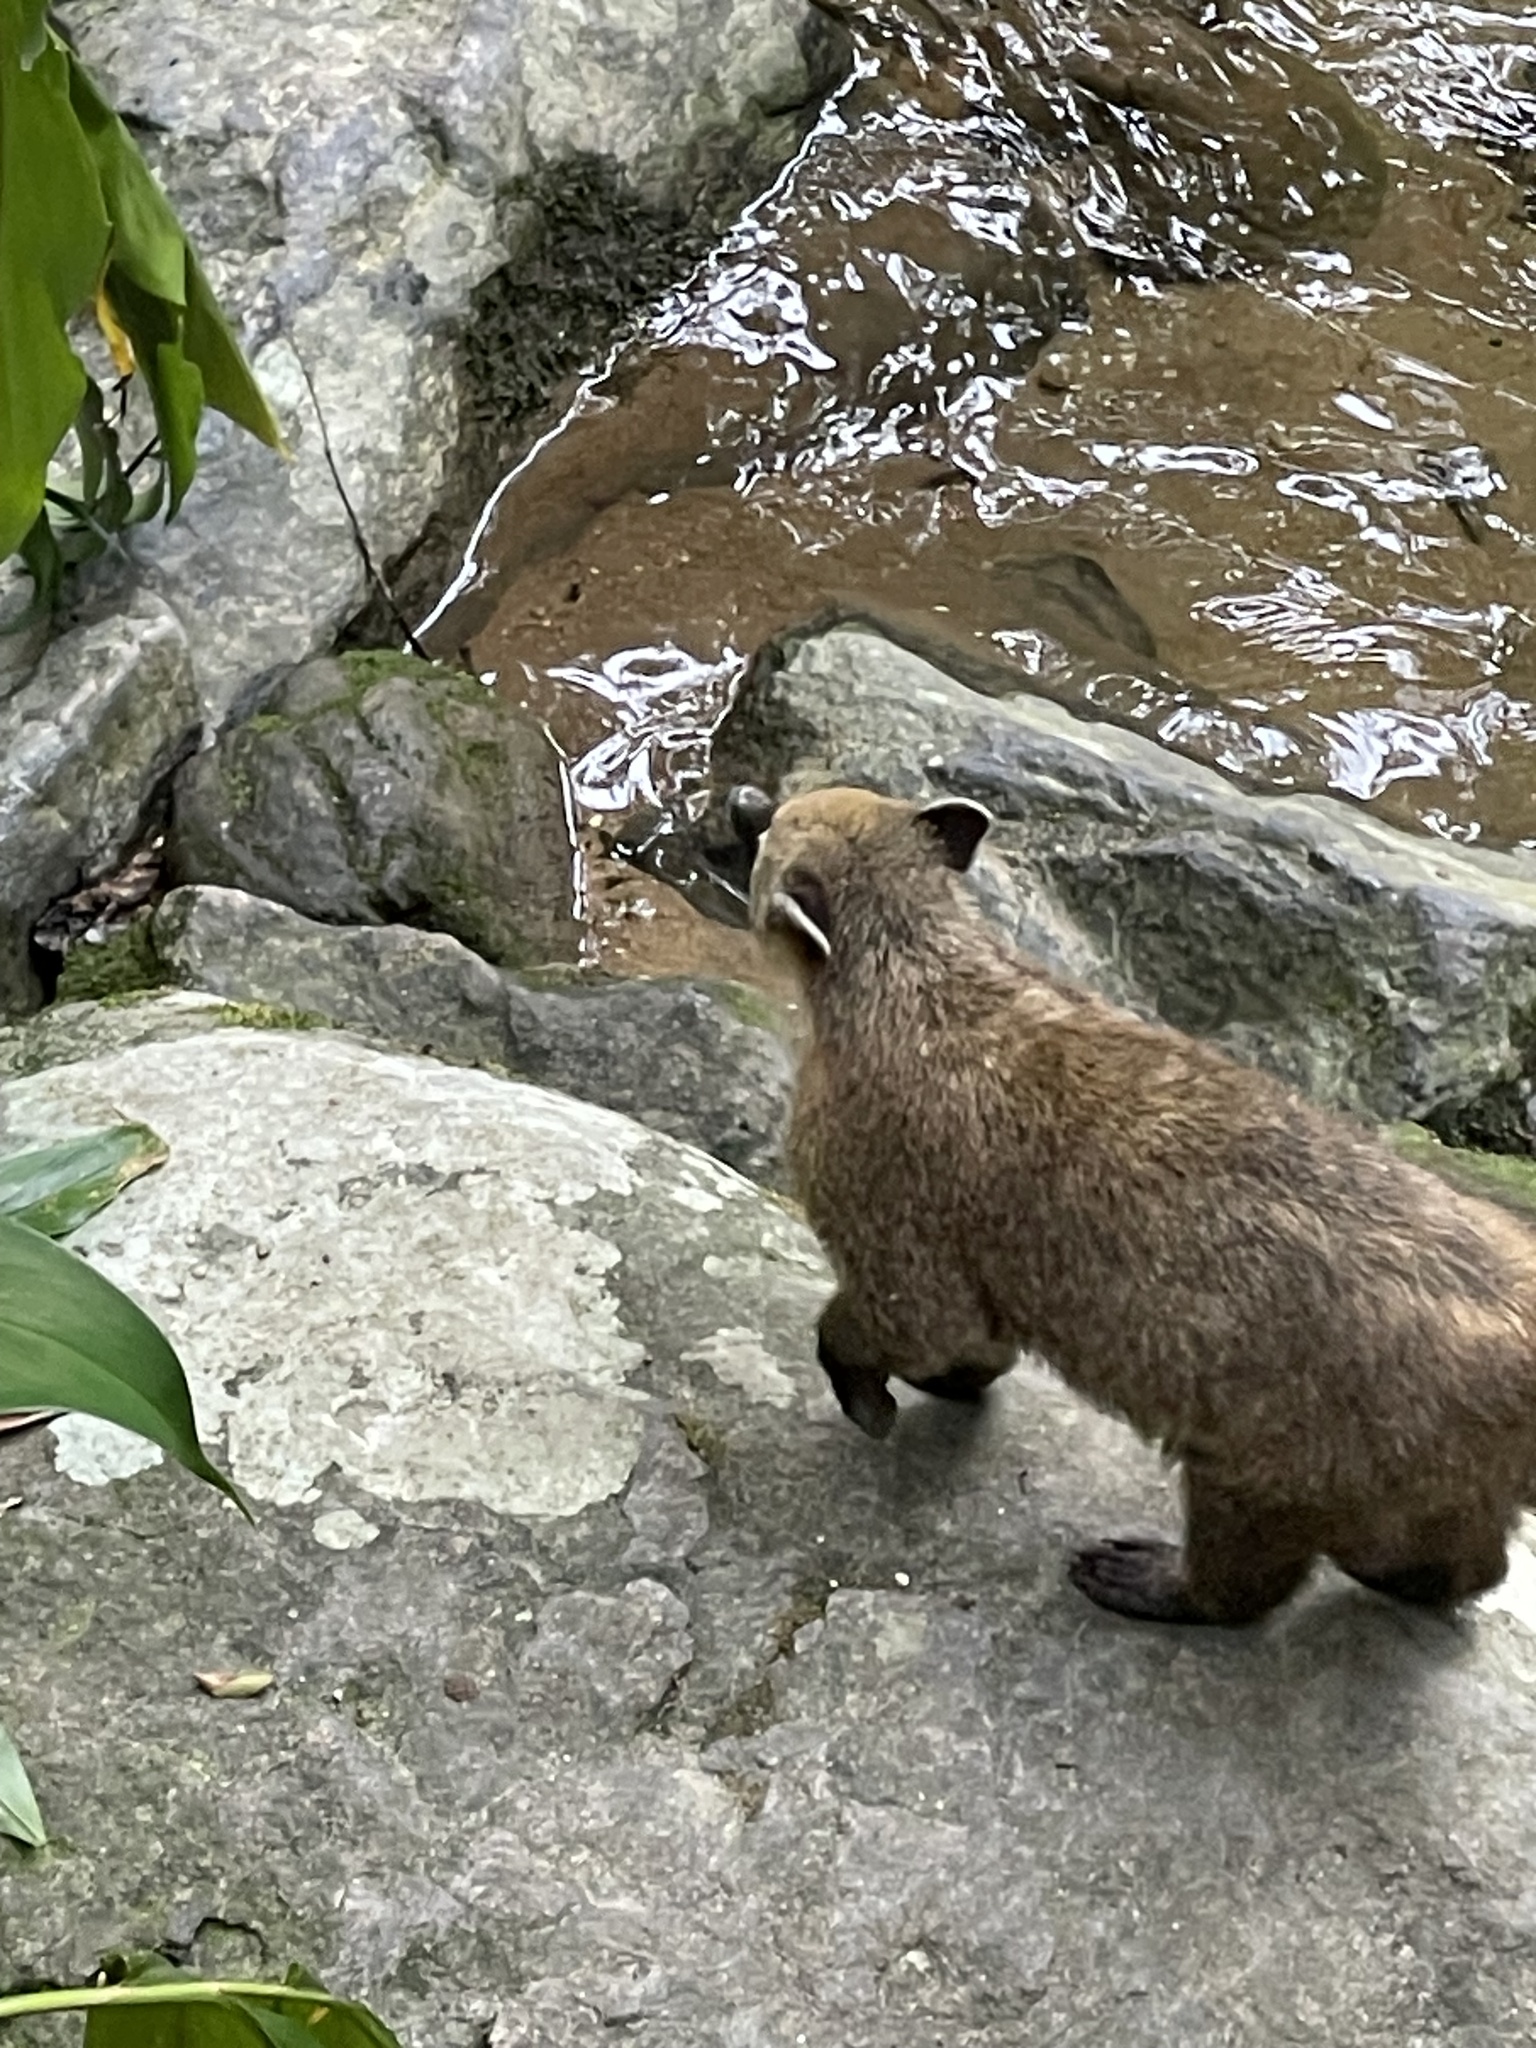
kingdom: Animalia
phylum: Chordata
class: Mammalia
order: Carnivora
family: Procyonidae
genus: Nasua
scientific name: Nasua nasua
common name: South american coati
